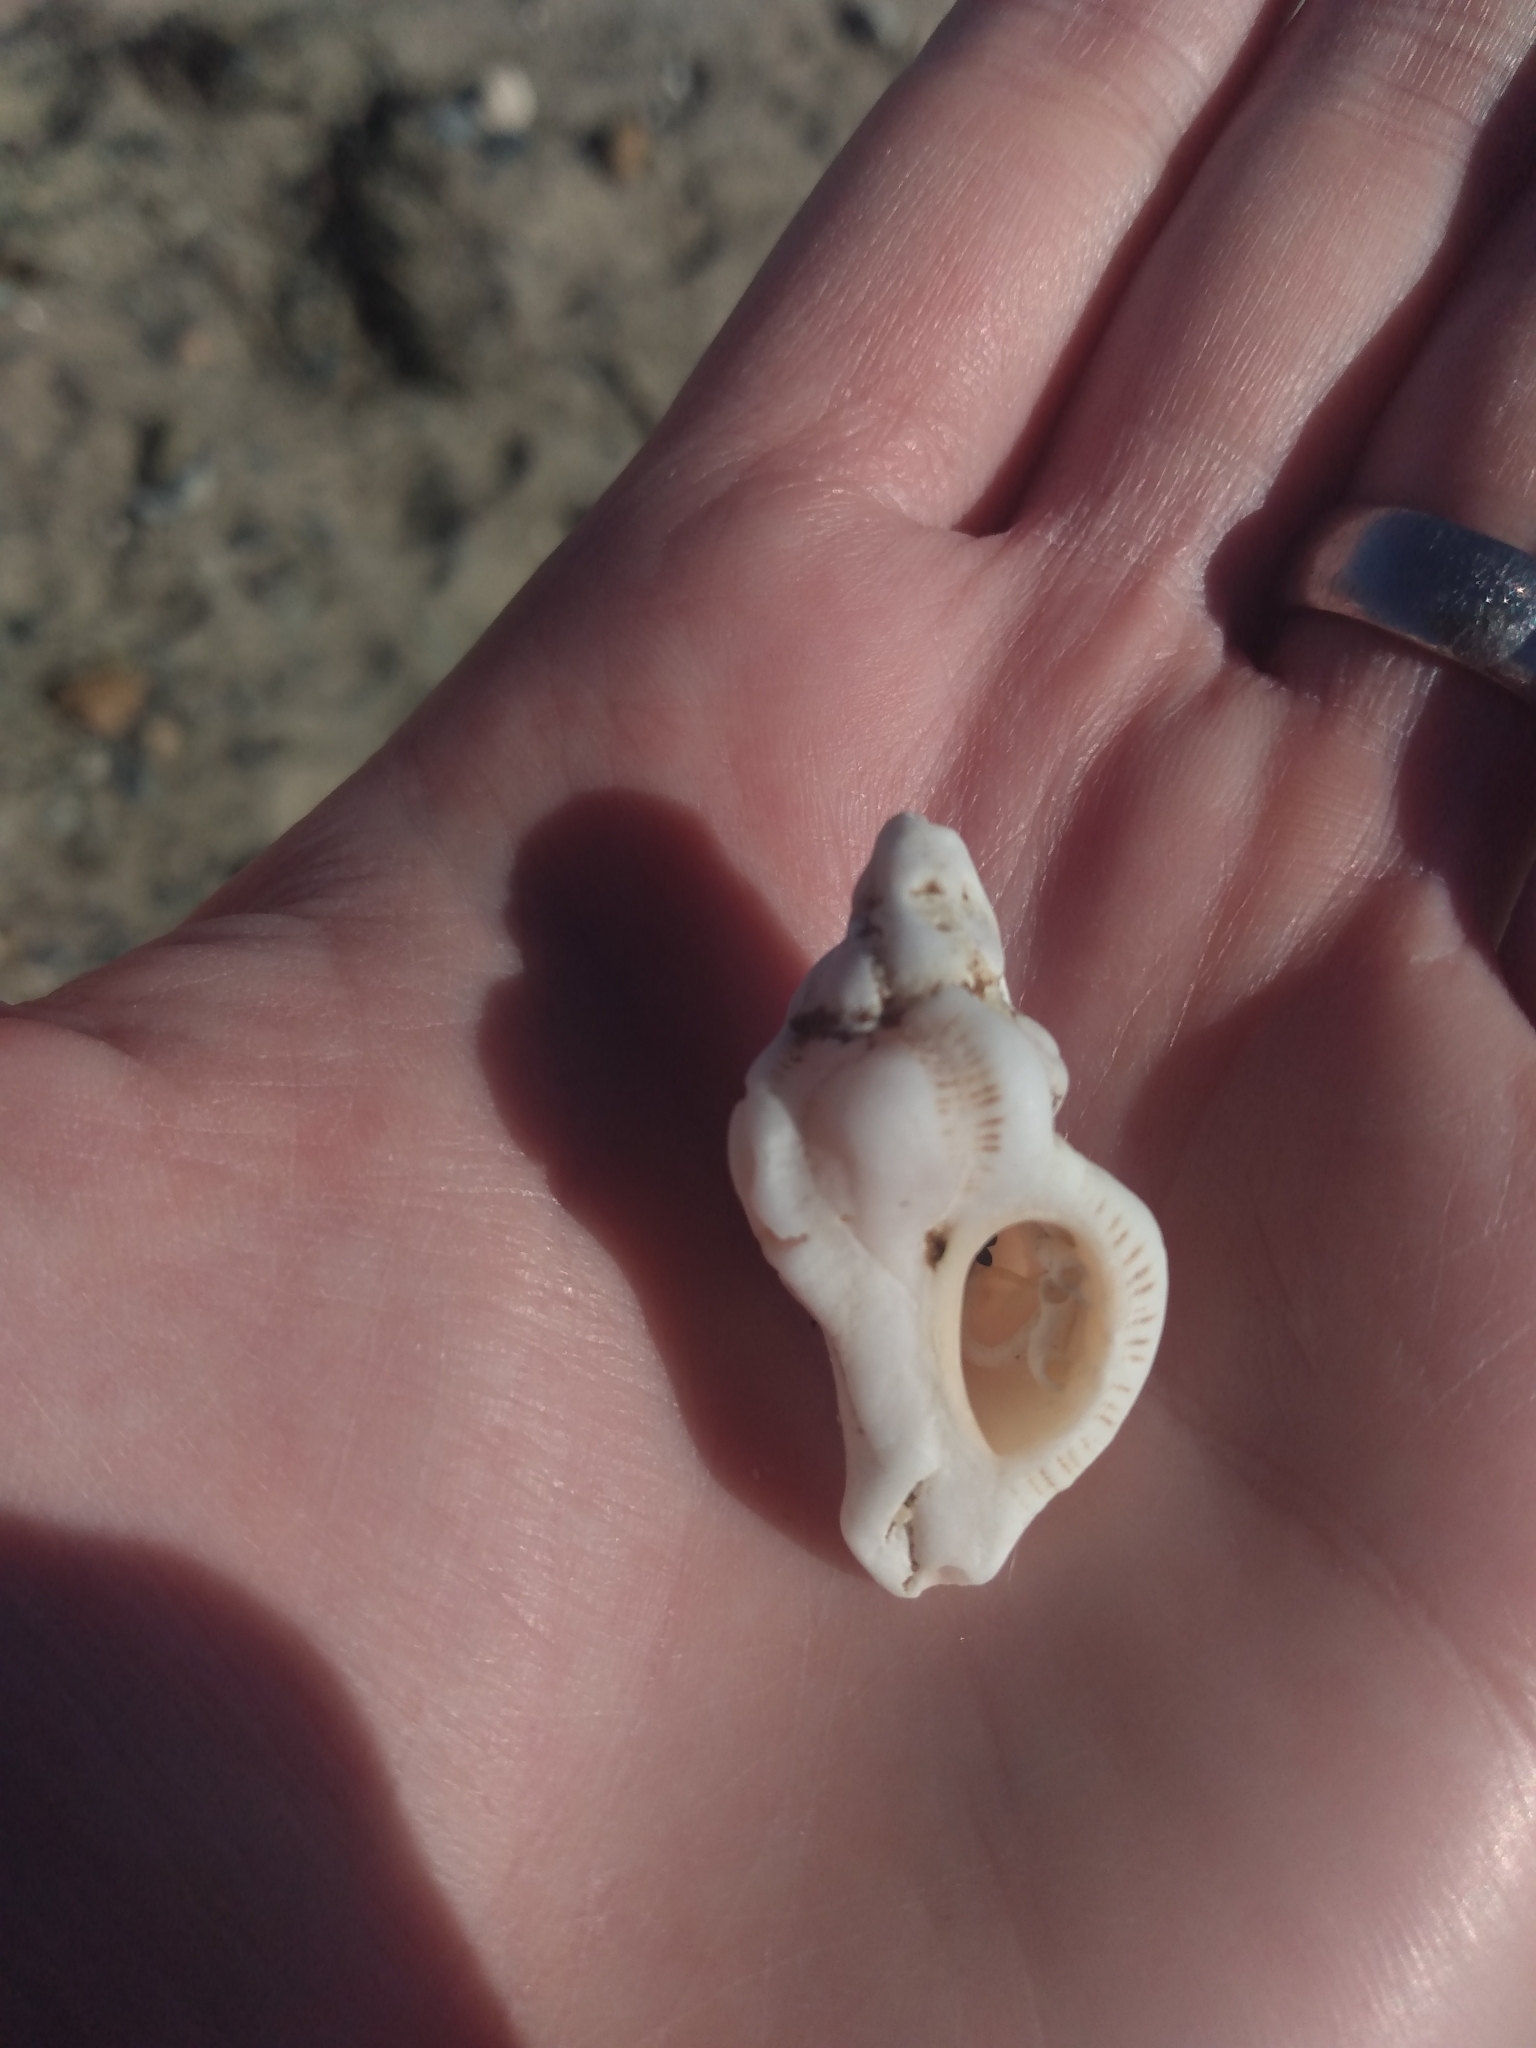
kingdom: Animalia
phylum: Mollusca
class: Gastropoda
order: Neogastropoda
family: Muricidae
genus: Pteropurpura
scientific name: Pteropurpura festiva
